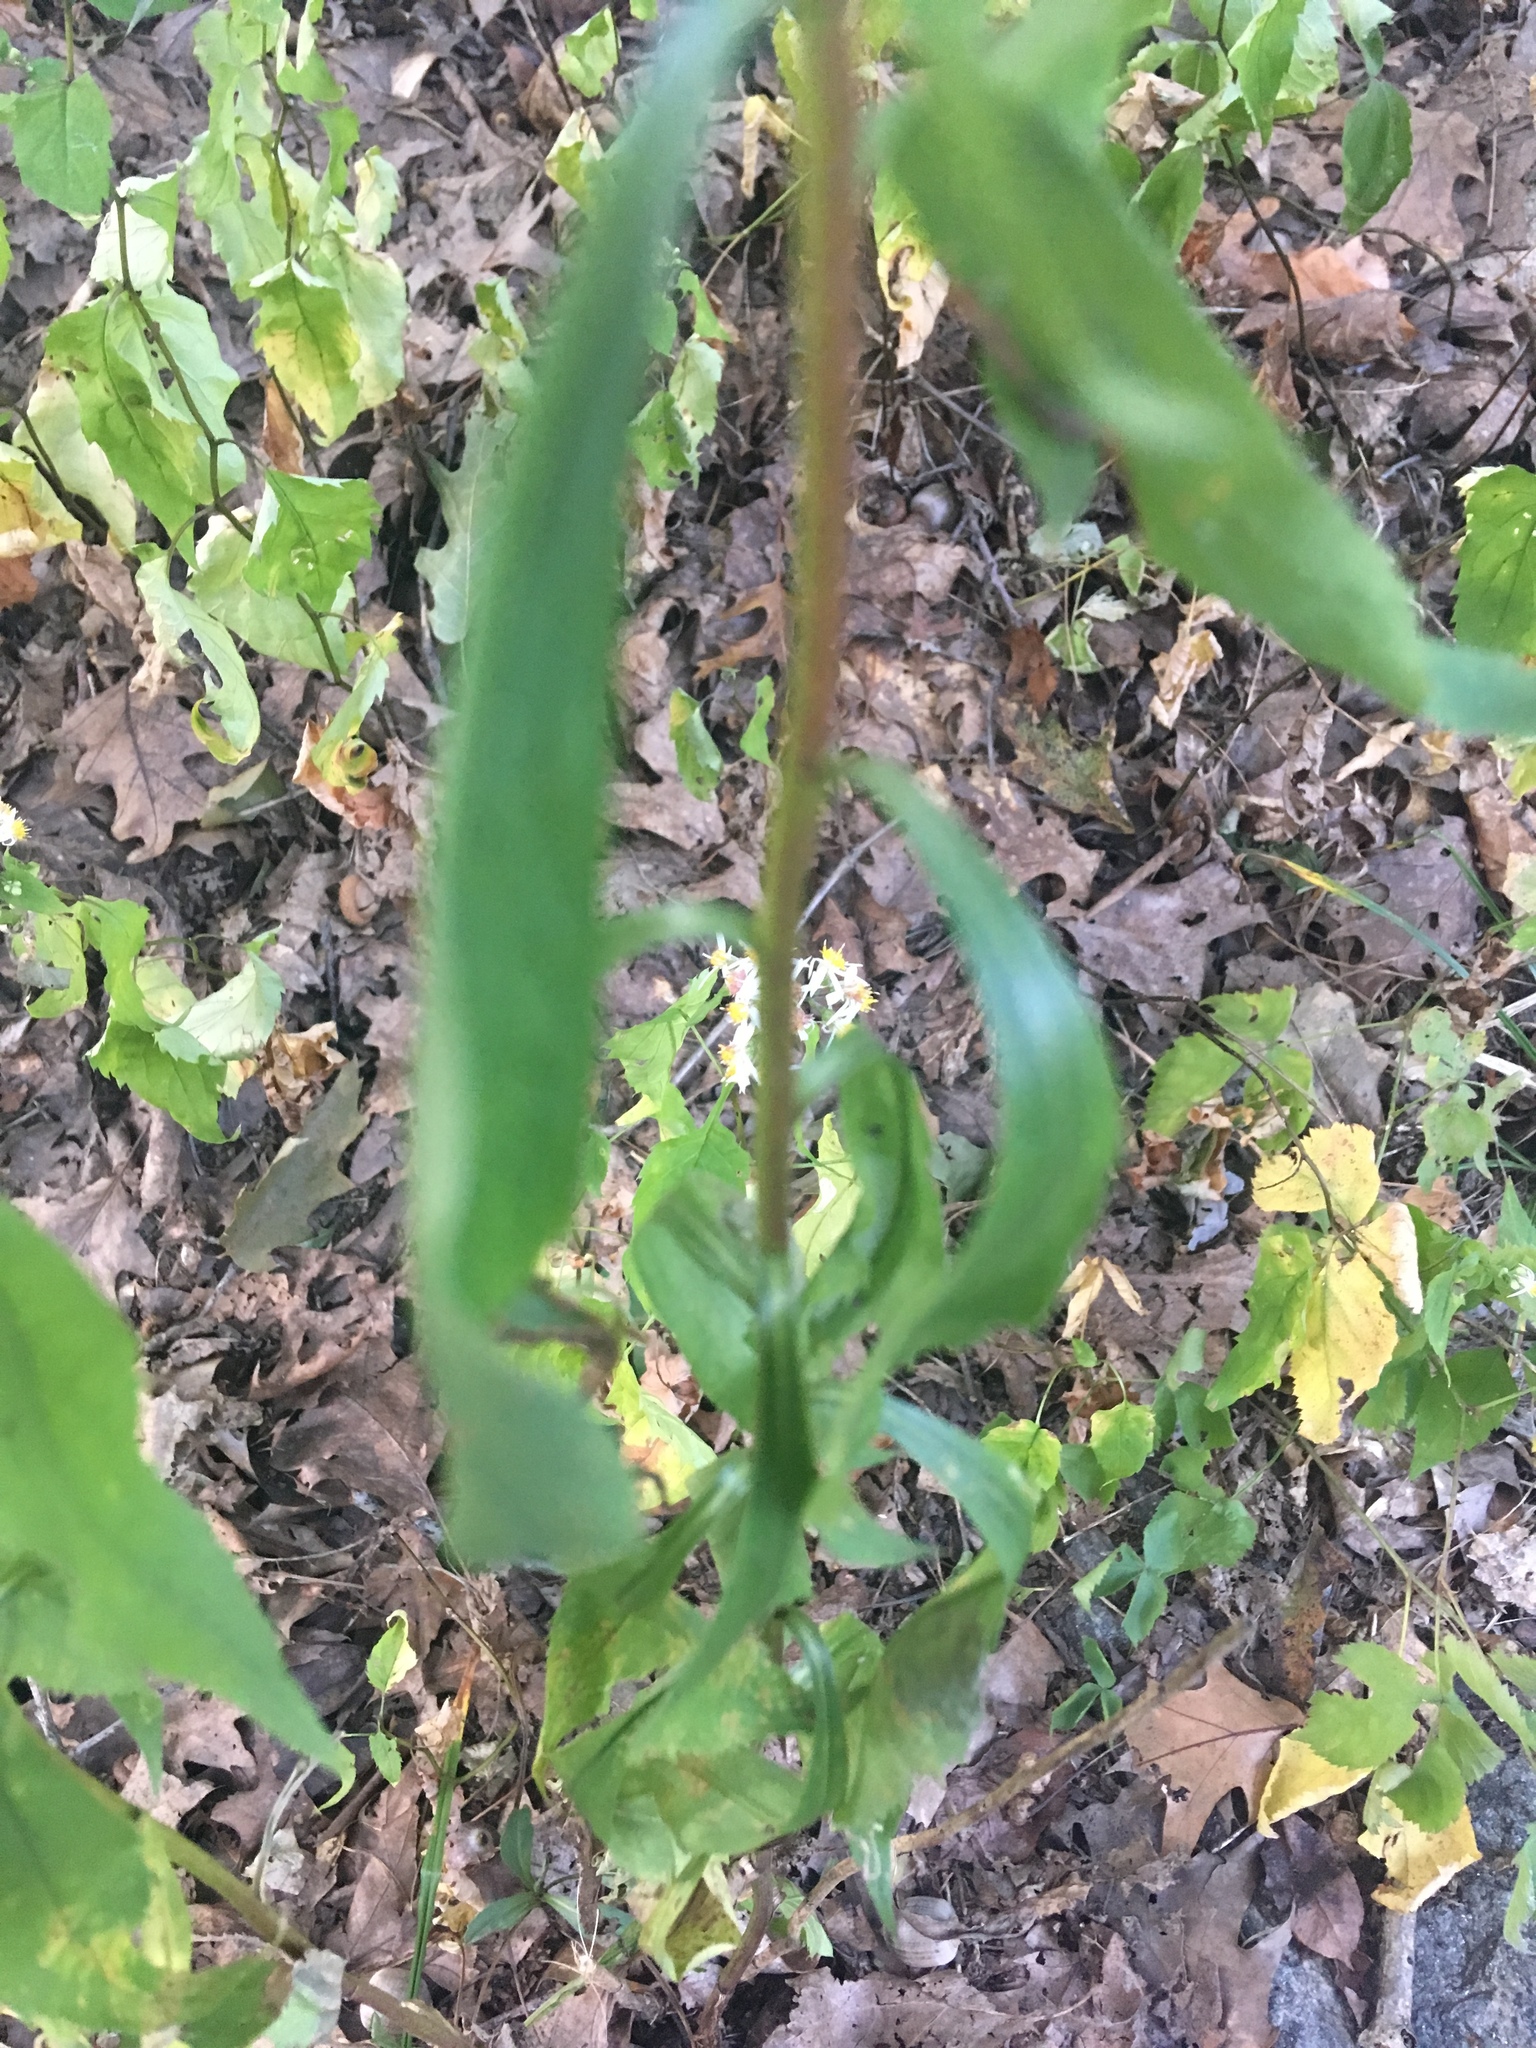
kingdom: Plantae
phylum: Tracheophyta
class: Magnoliopsida
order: Asterales
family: Asteraceae
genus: Solidago
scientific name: Solidago juncea
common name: Early goldenrod
